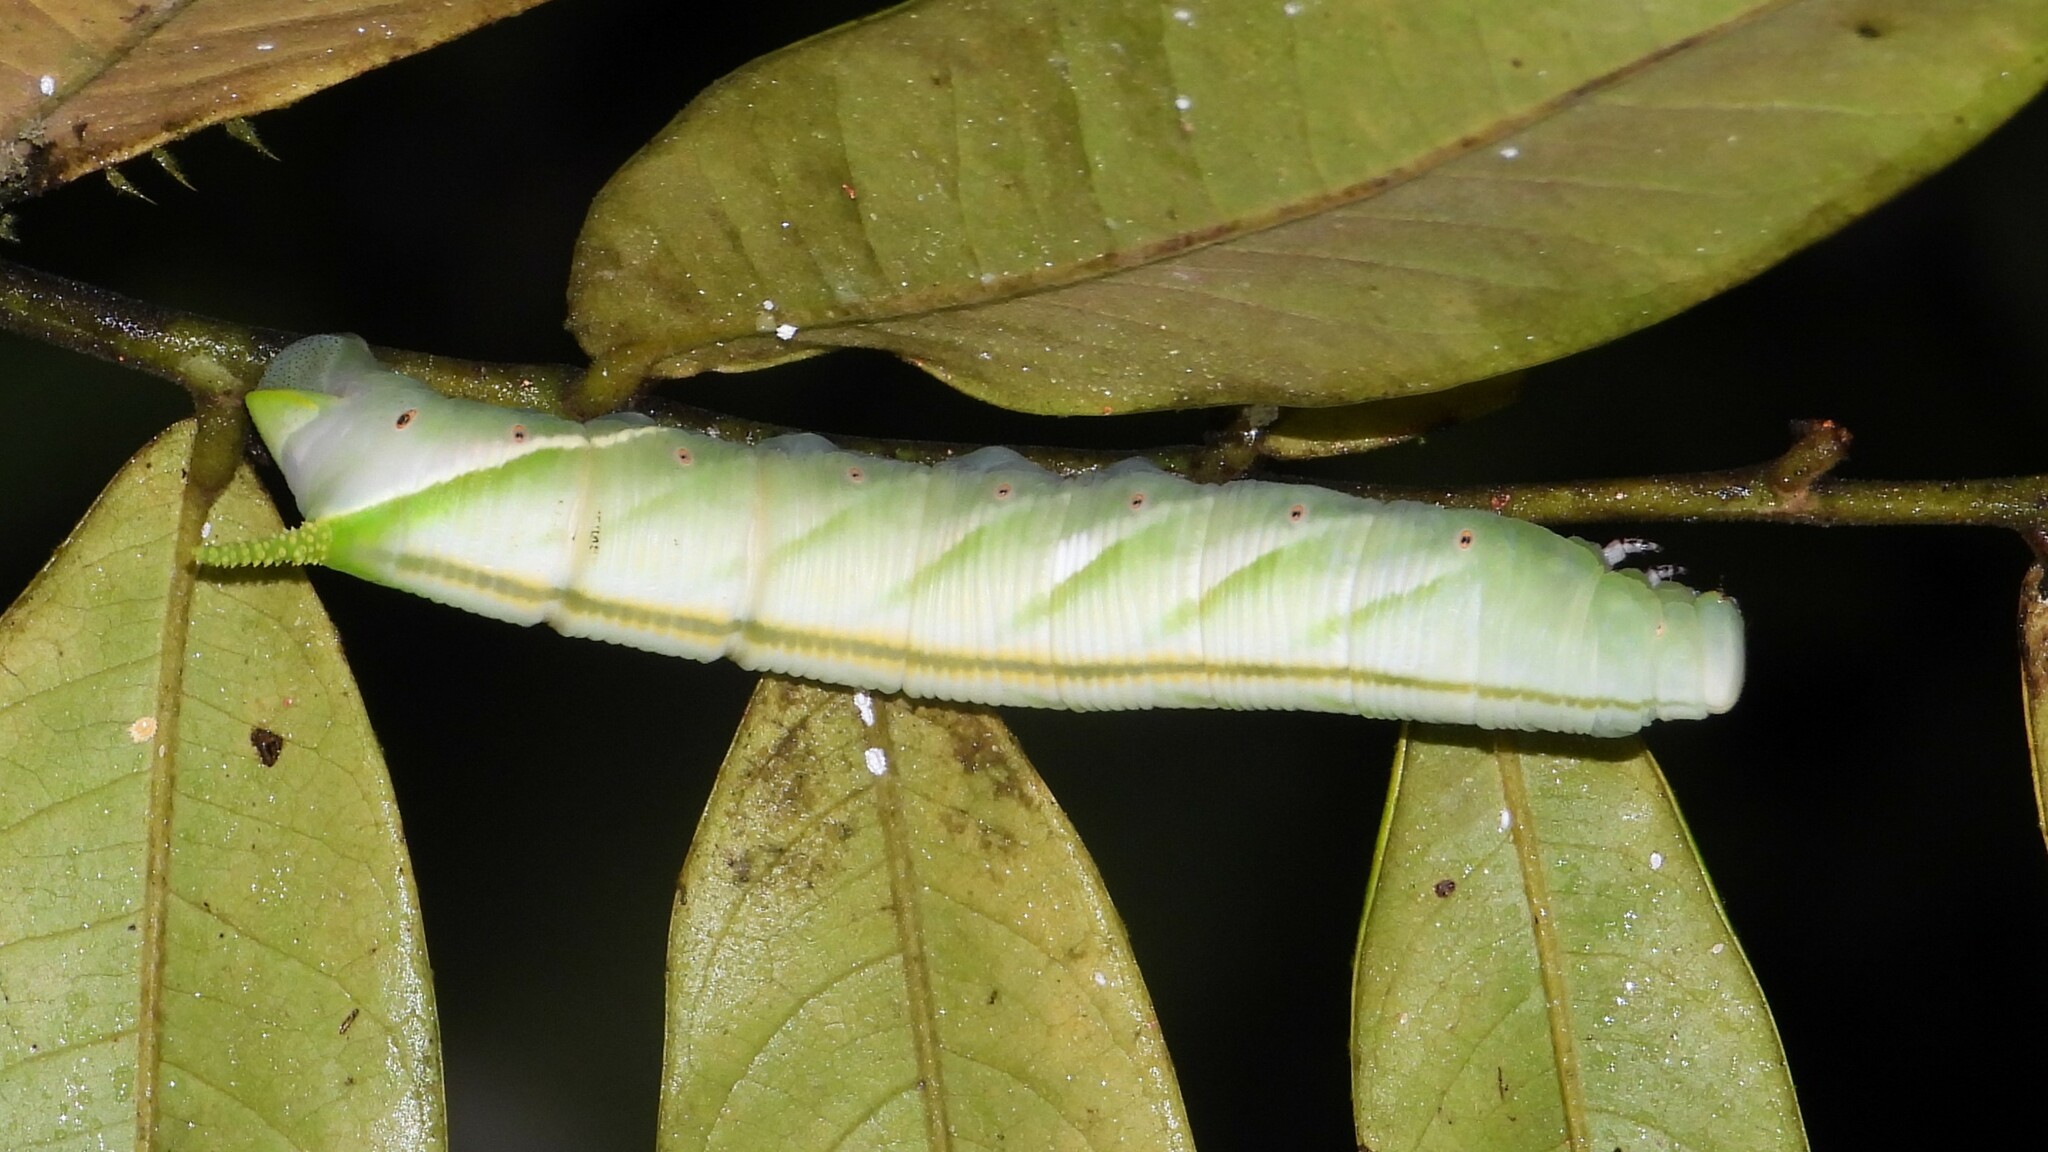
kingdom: Animalia
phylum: Arthropoda
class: Insecta
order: Lepidoptera
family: Sphingidae
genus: Cocytius
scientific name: Cocytius lucifer
